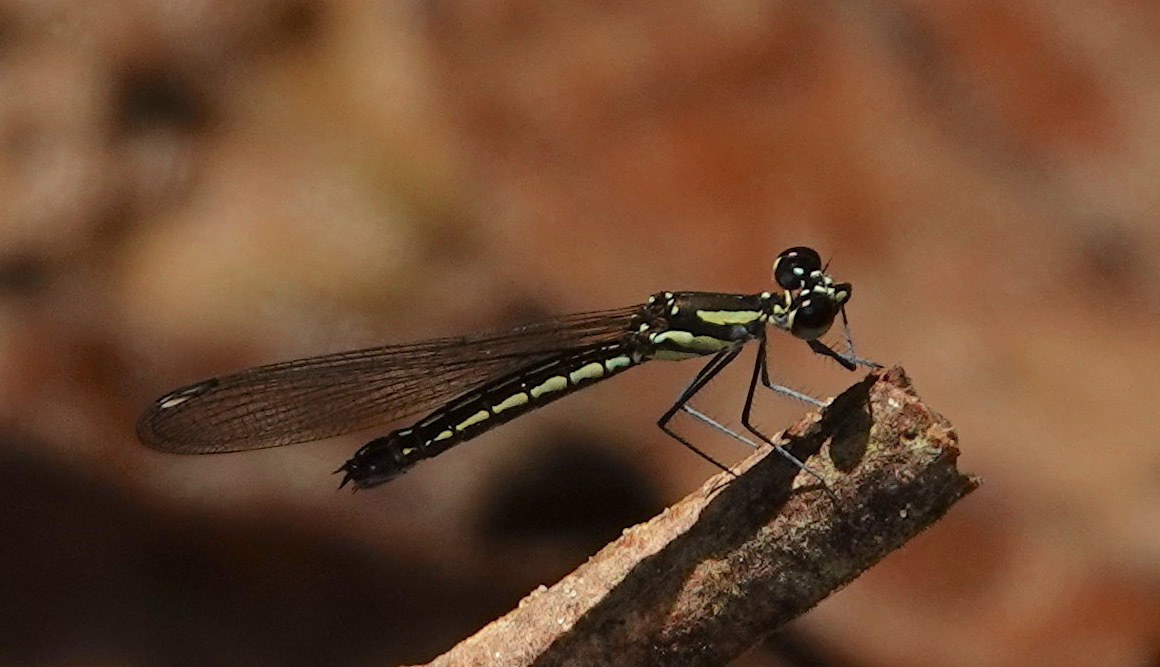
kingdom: Animalia
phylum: Arthropoda
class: Insecta
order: Odonata
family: Chlorocyphidae
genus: Libellago
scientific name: Libellago semiopaca
